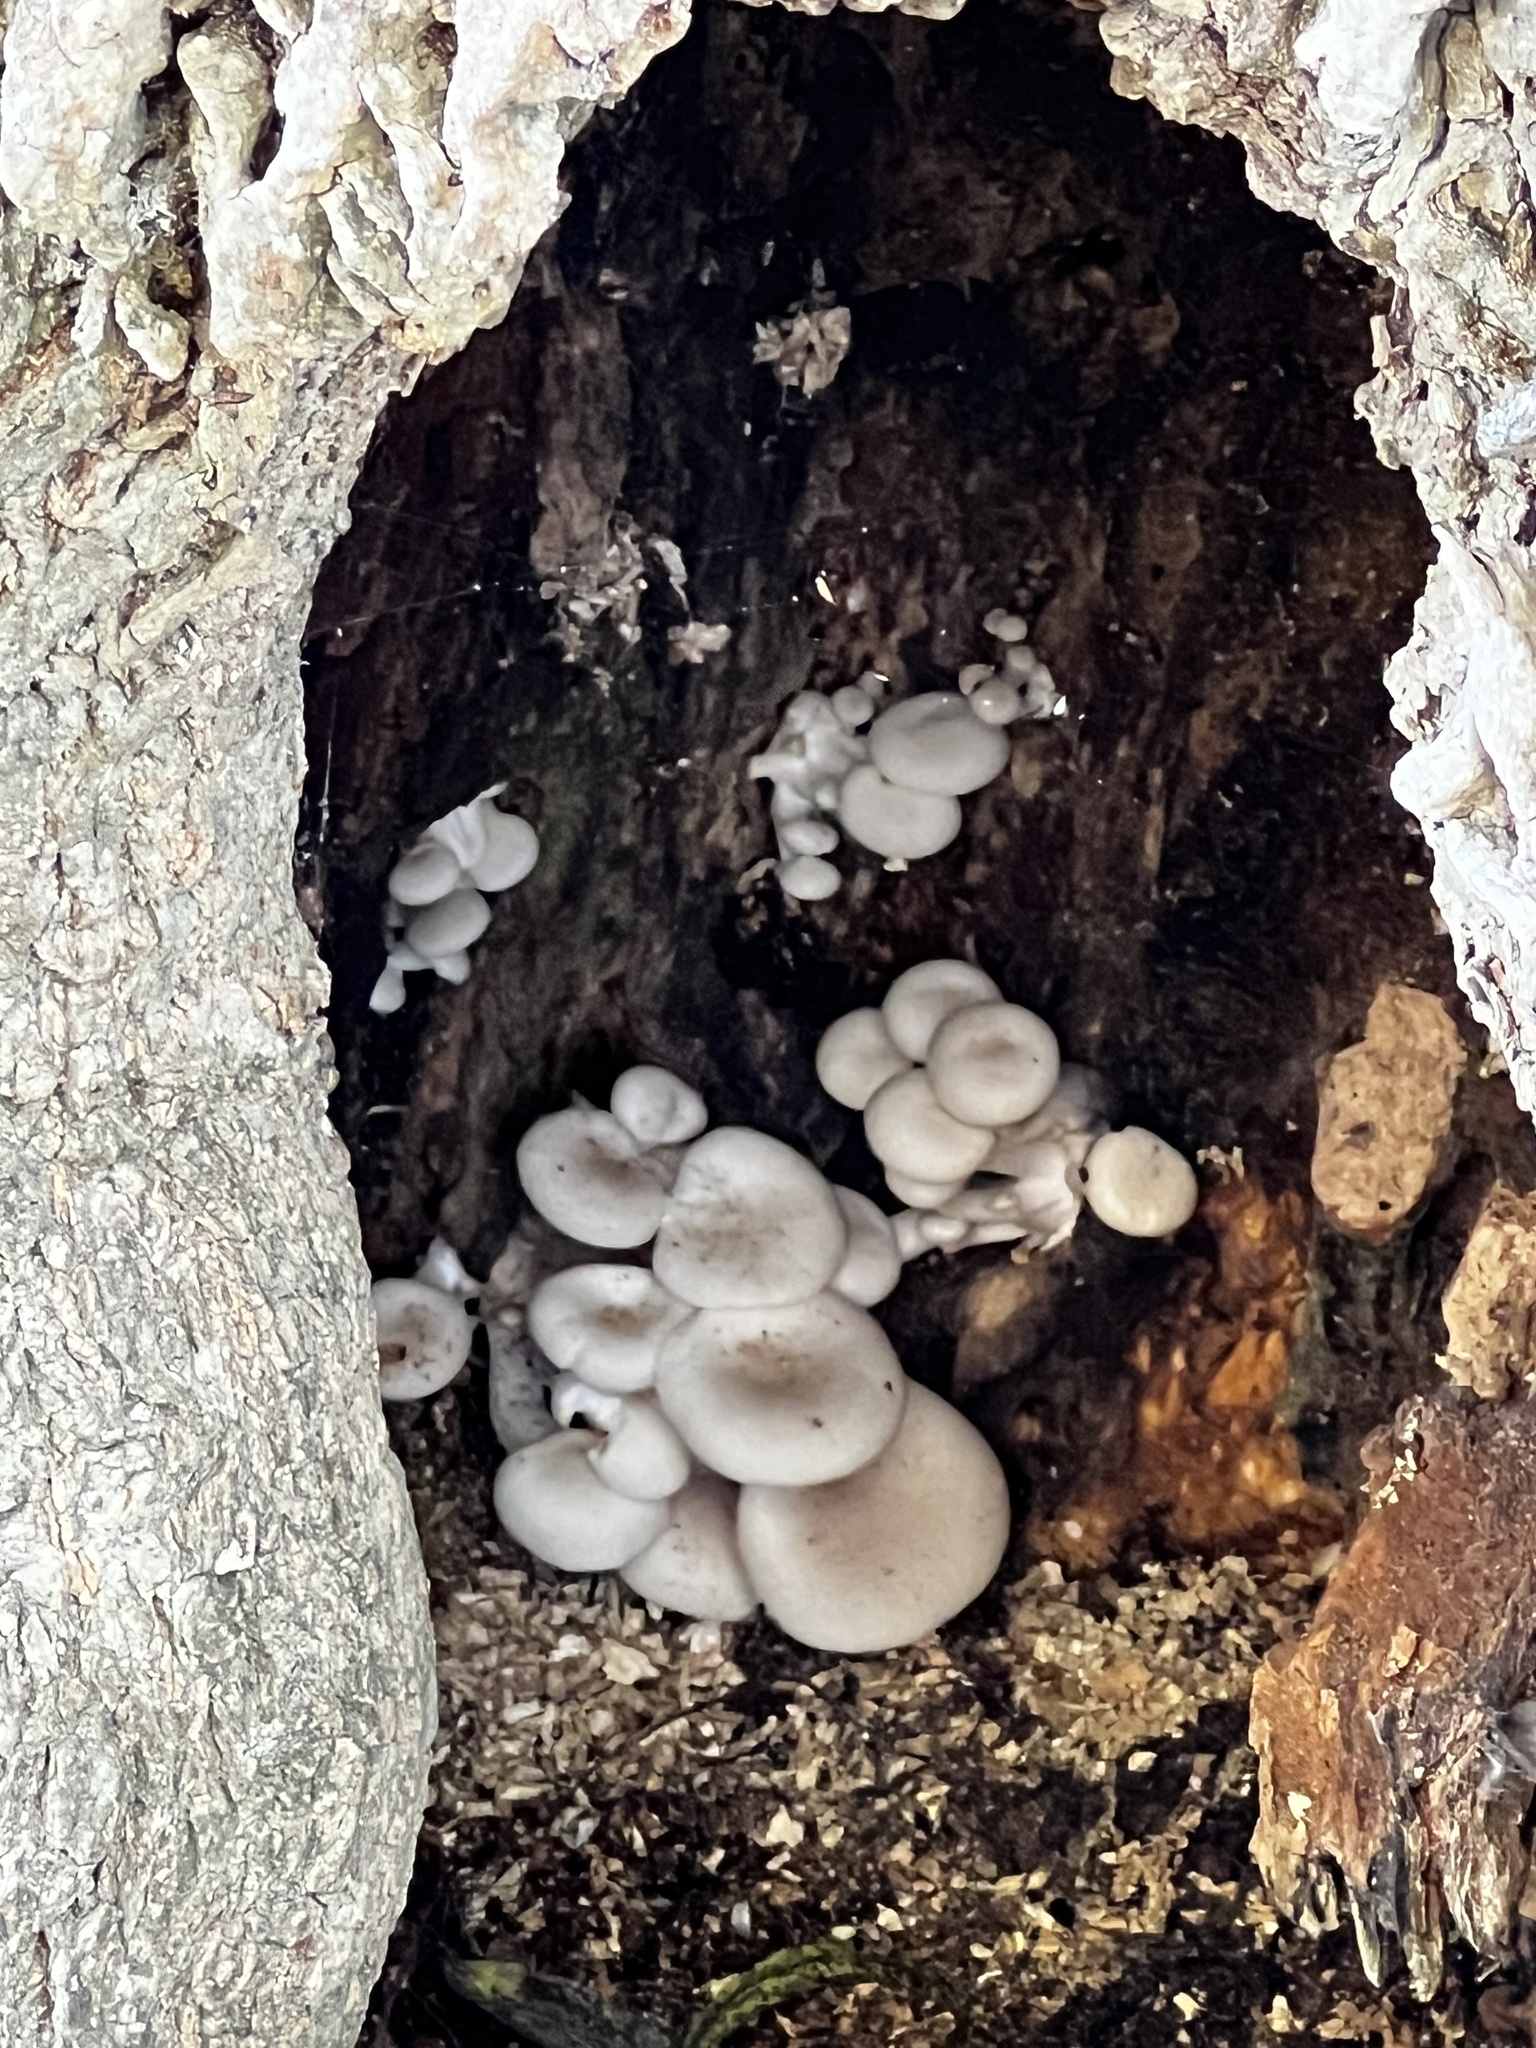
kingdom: Fungi
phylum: Basidiomycota
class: Agaricomycetes
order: Agaricales
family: Pleurotaceae
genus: Pleurotus
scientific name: Pleurotus ostreatus
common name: Oyster mushroom
